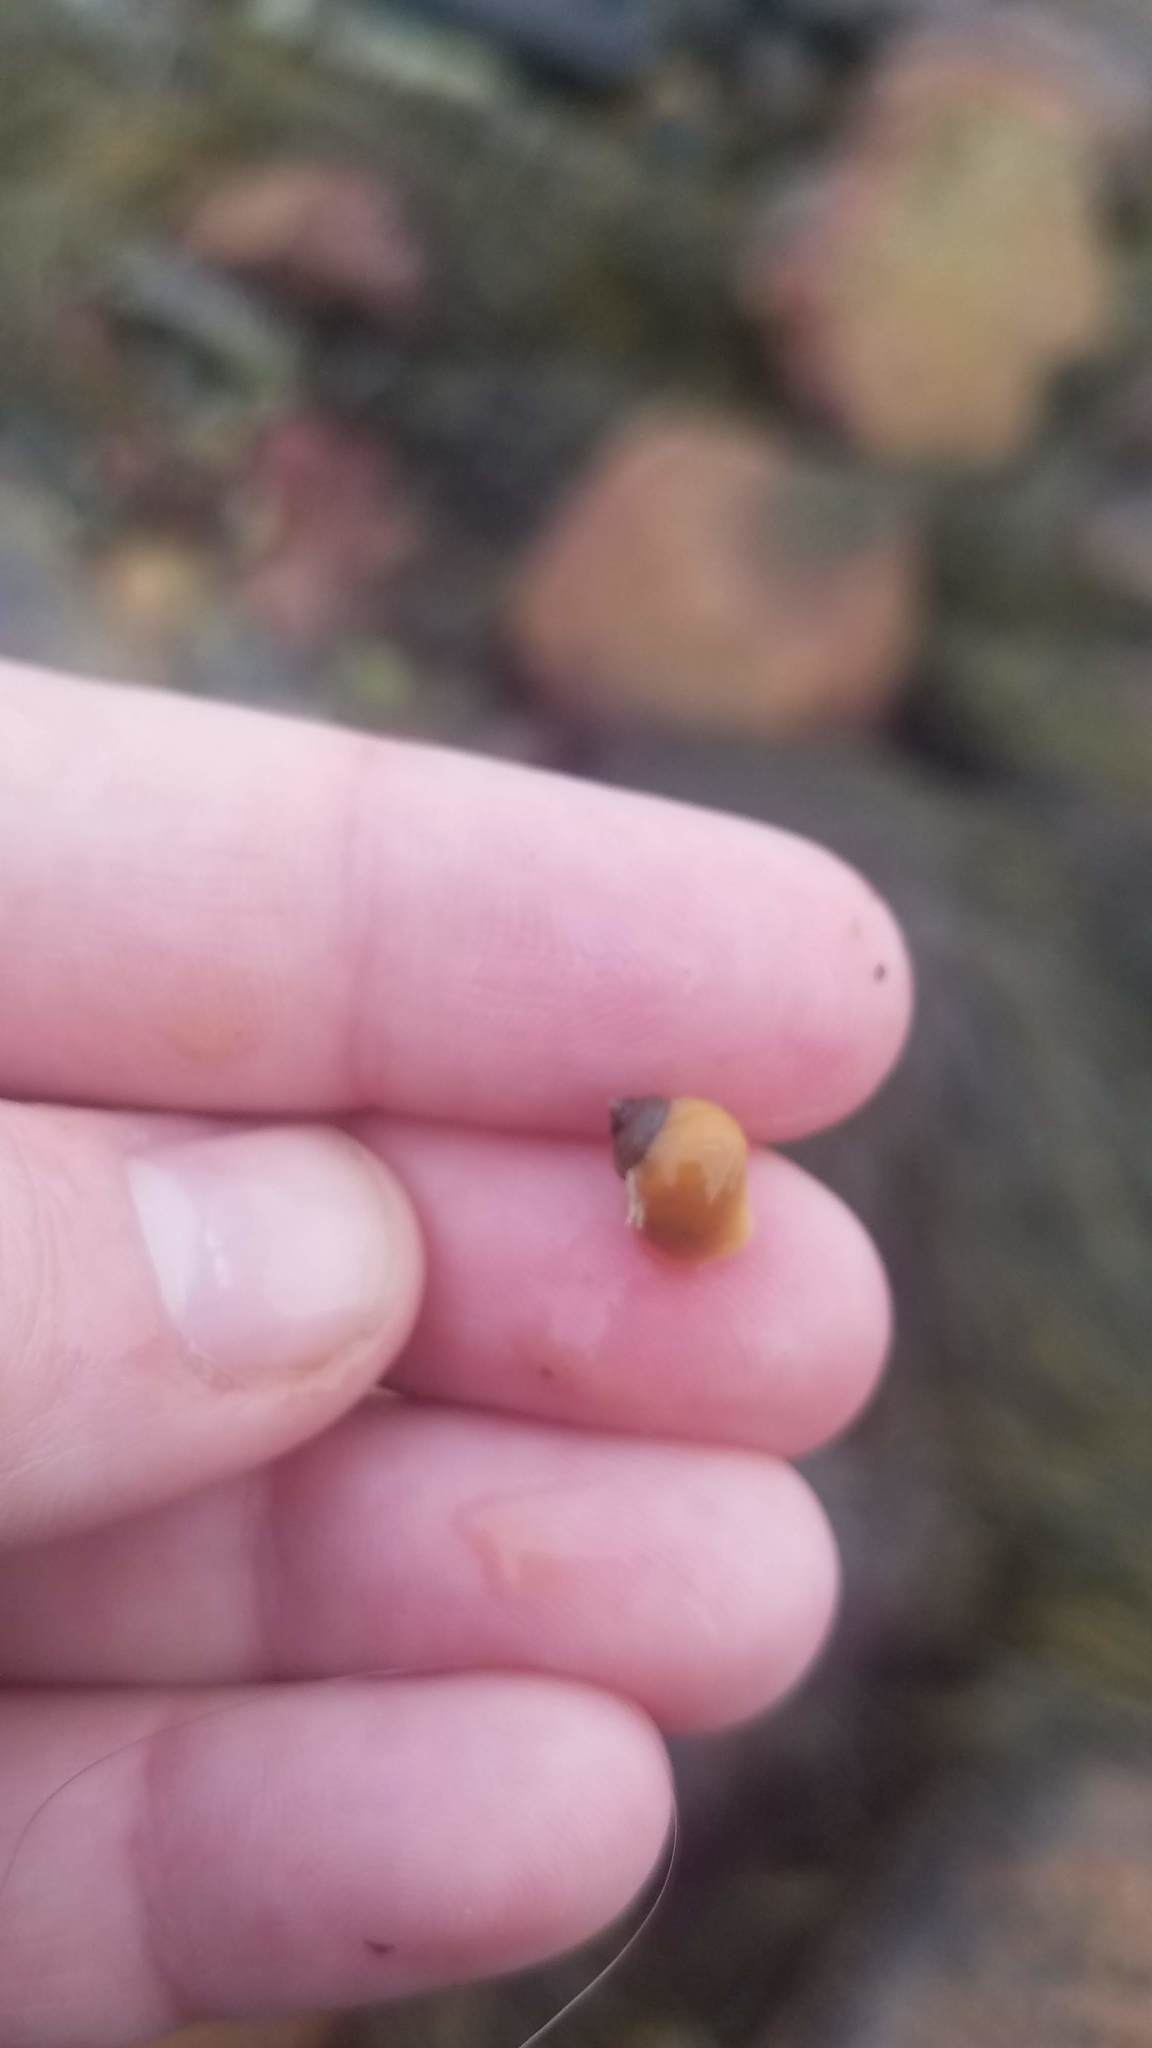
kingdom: Animalia
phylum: Mollusca
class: Gastropoda
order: Littorinimorpha
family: Littorinidae
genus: Littorina
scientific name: Littorina saxatilis
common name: Black-lined periwinkle
